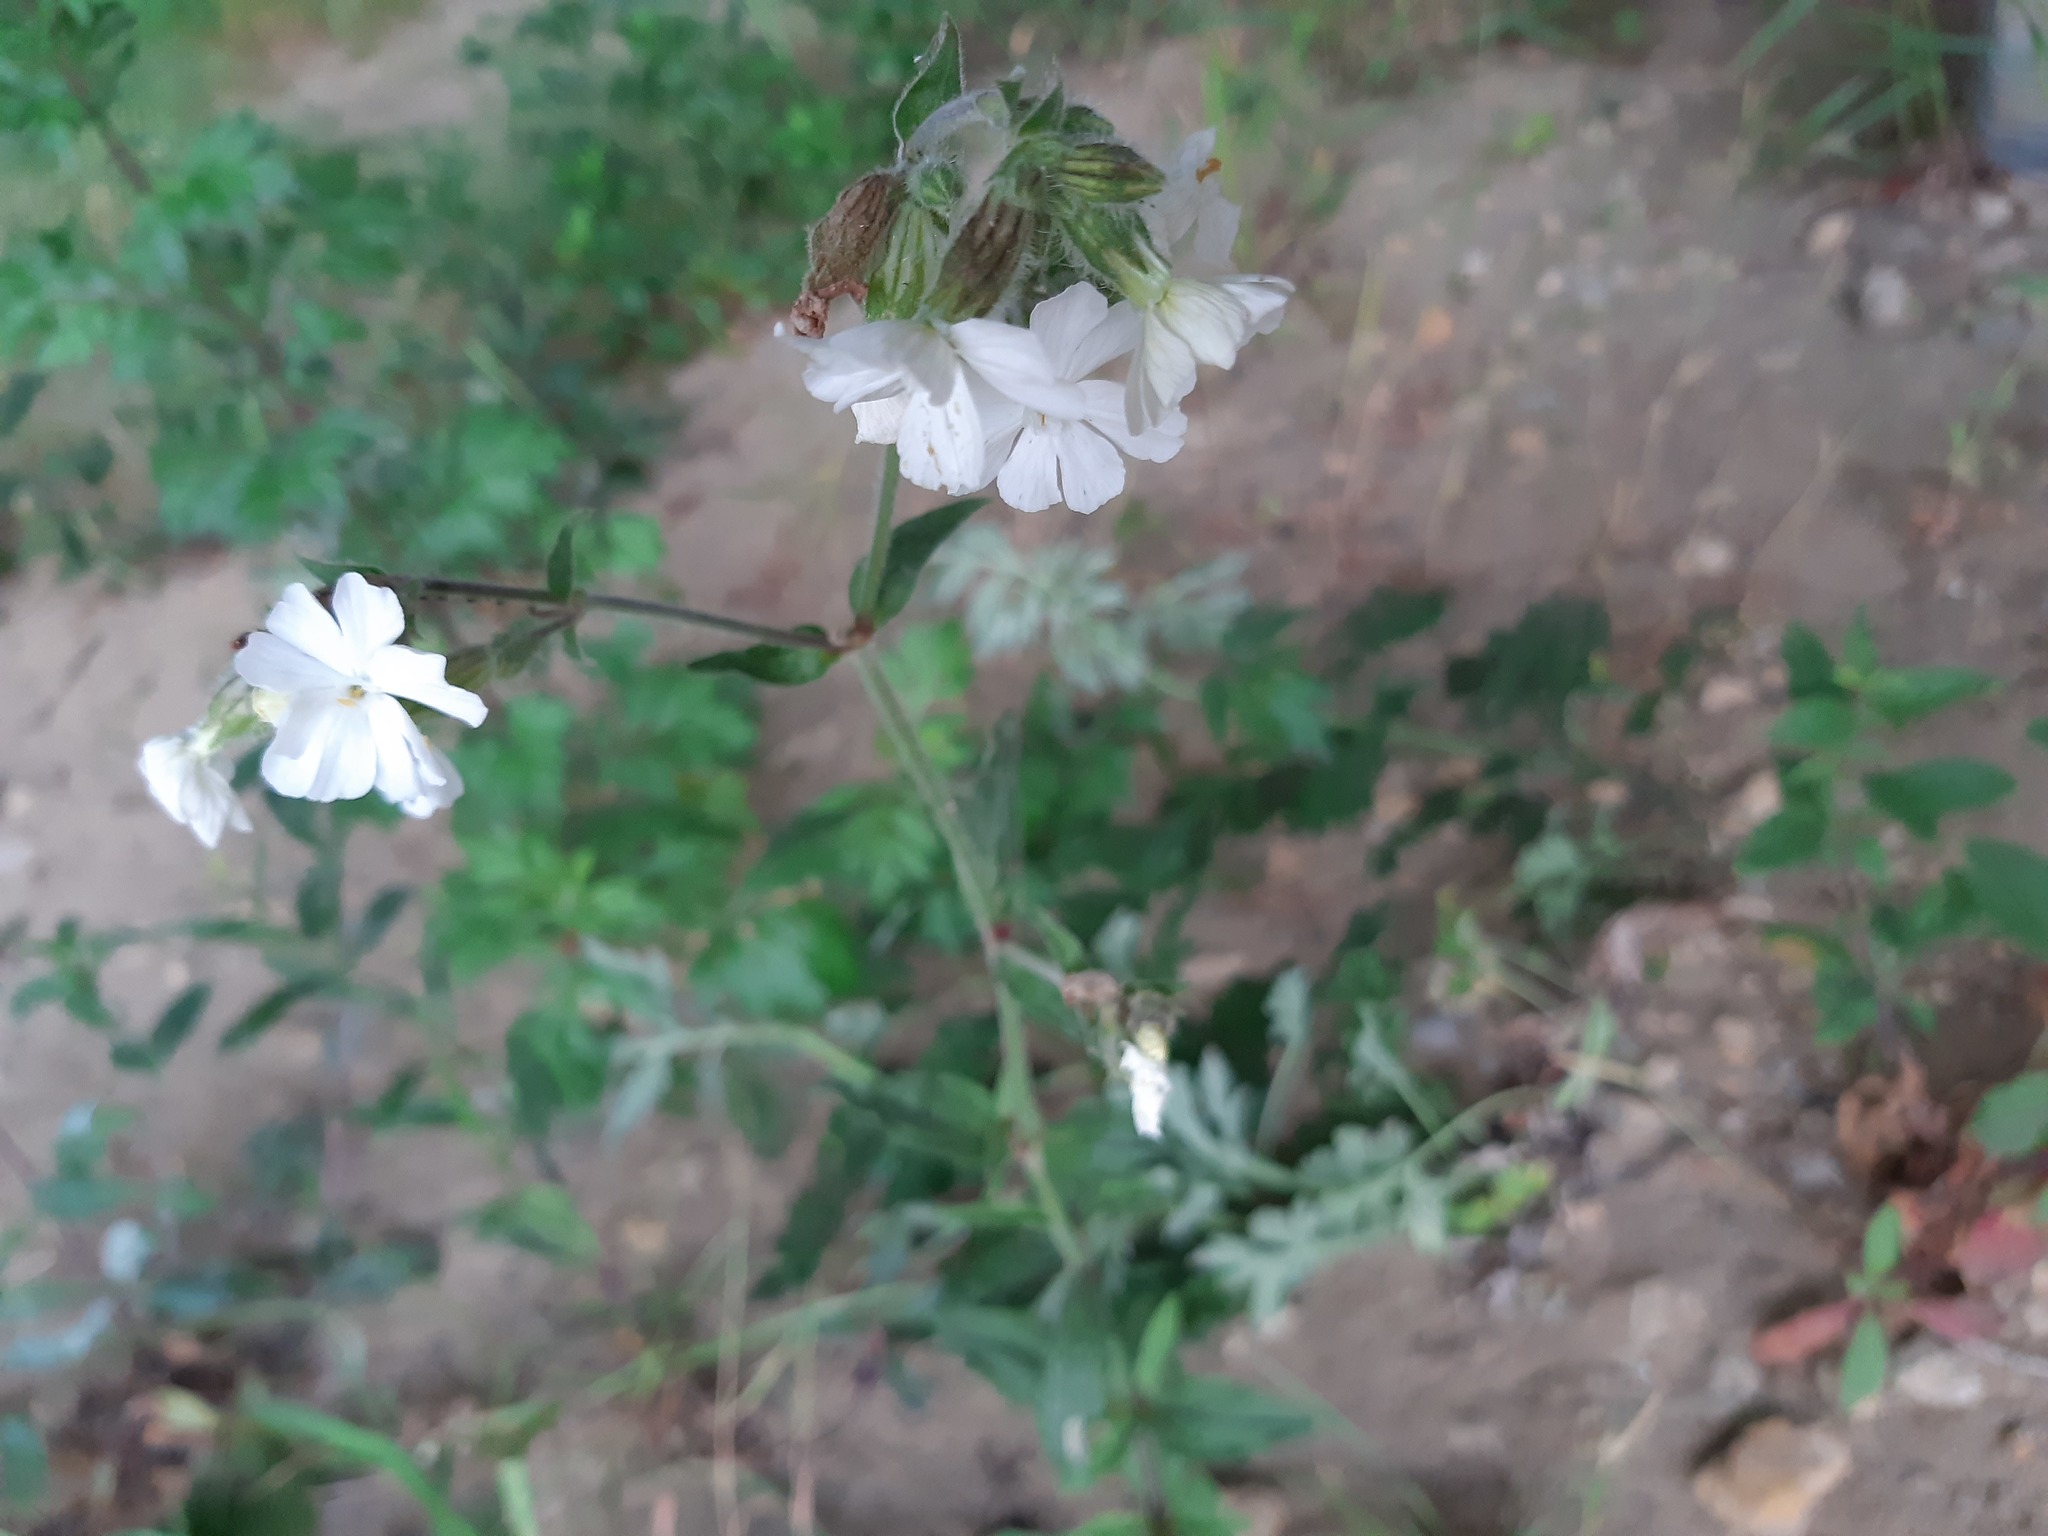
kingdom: Plantae
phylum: Tracheophyta
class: Magnoliopsida
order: Caryophyllales
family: Caryophyllaceae
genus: Silene
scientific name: Silene latifolia
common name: White campion
